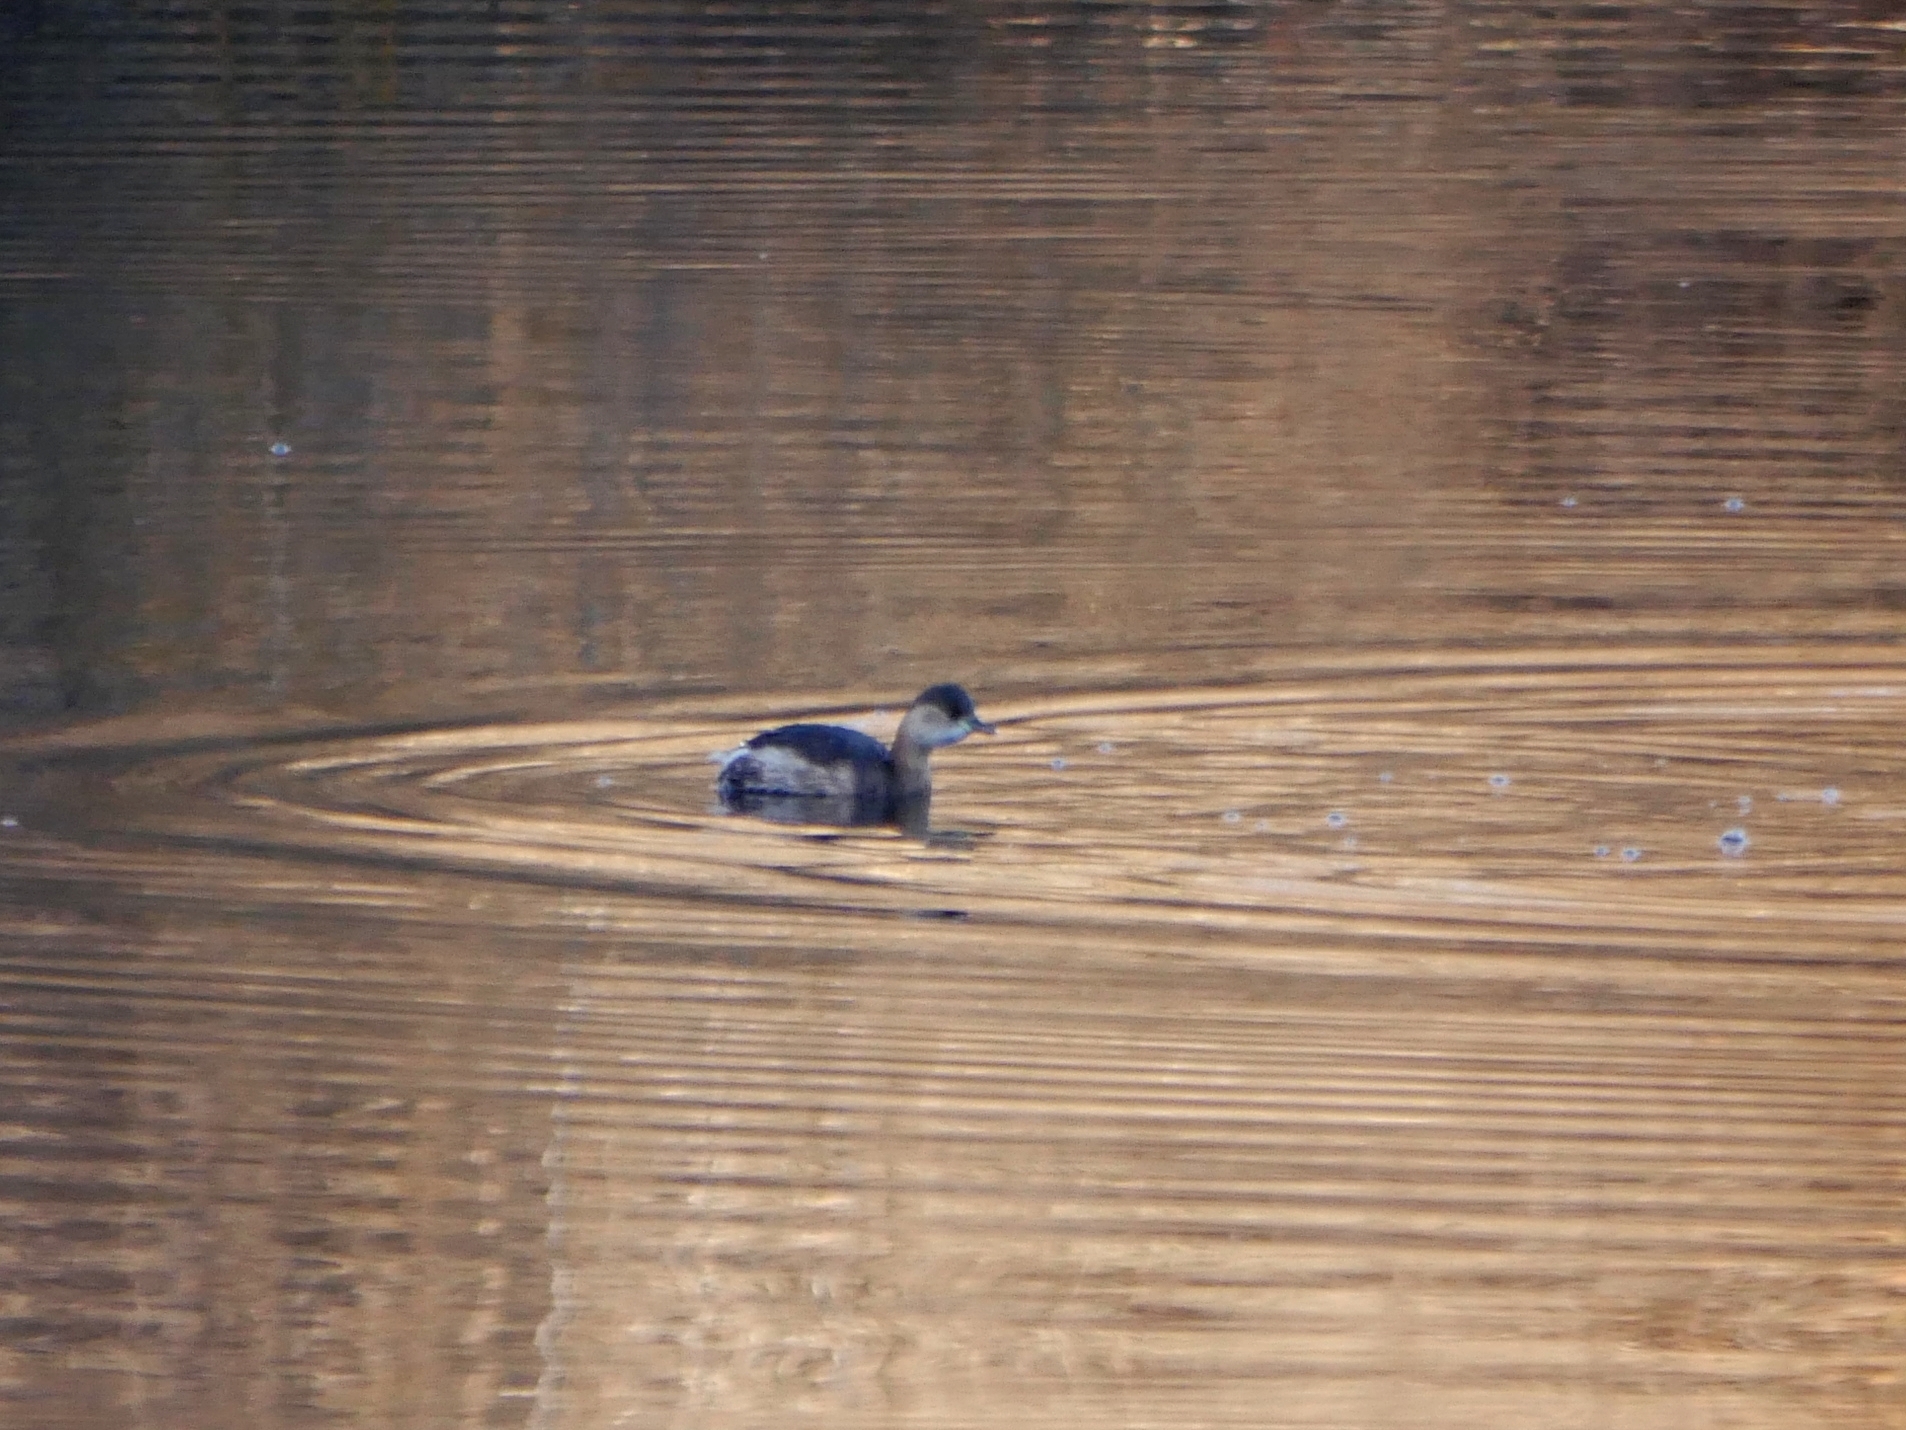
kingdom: Animalia
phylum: Chordata
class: Aves
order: Podicipediformes
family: Podicipedidae
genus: Tachybaptus
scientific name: Tachybaptus ruficollis
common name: Little grebe
